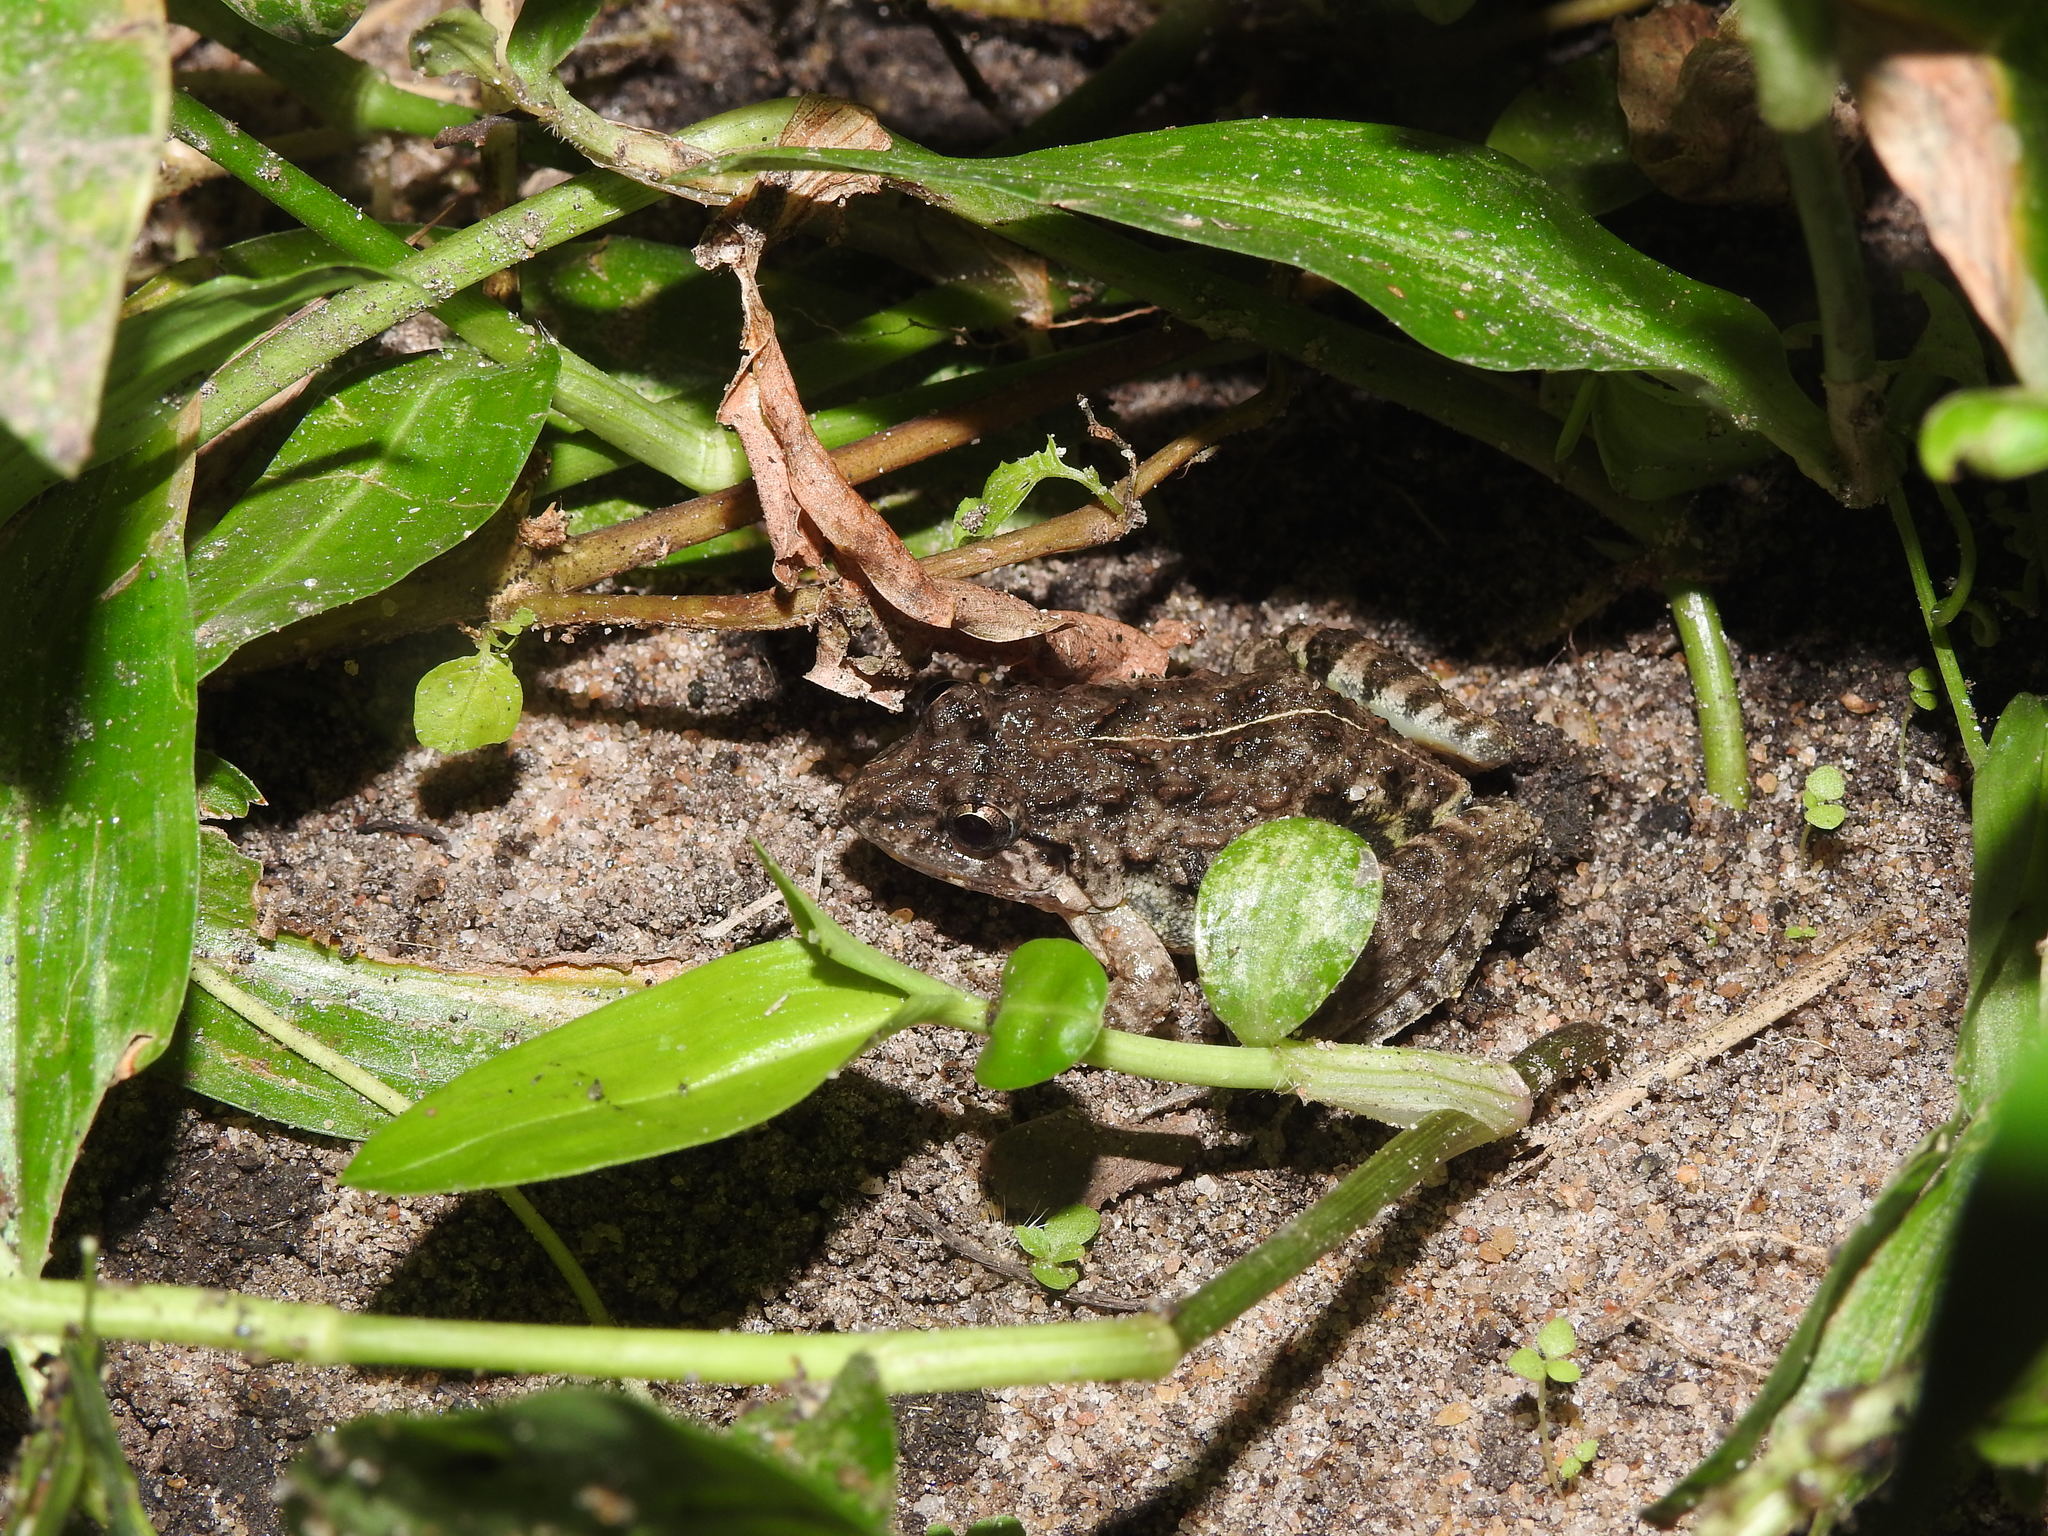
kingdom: Animalia
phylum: Chordata
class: Amphibia
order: Anura
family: Dicroglossidae
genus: Minervarya
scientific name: Minervarya agricola
